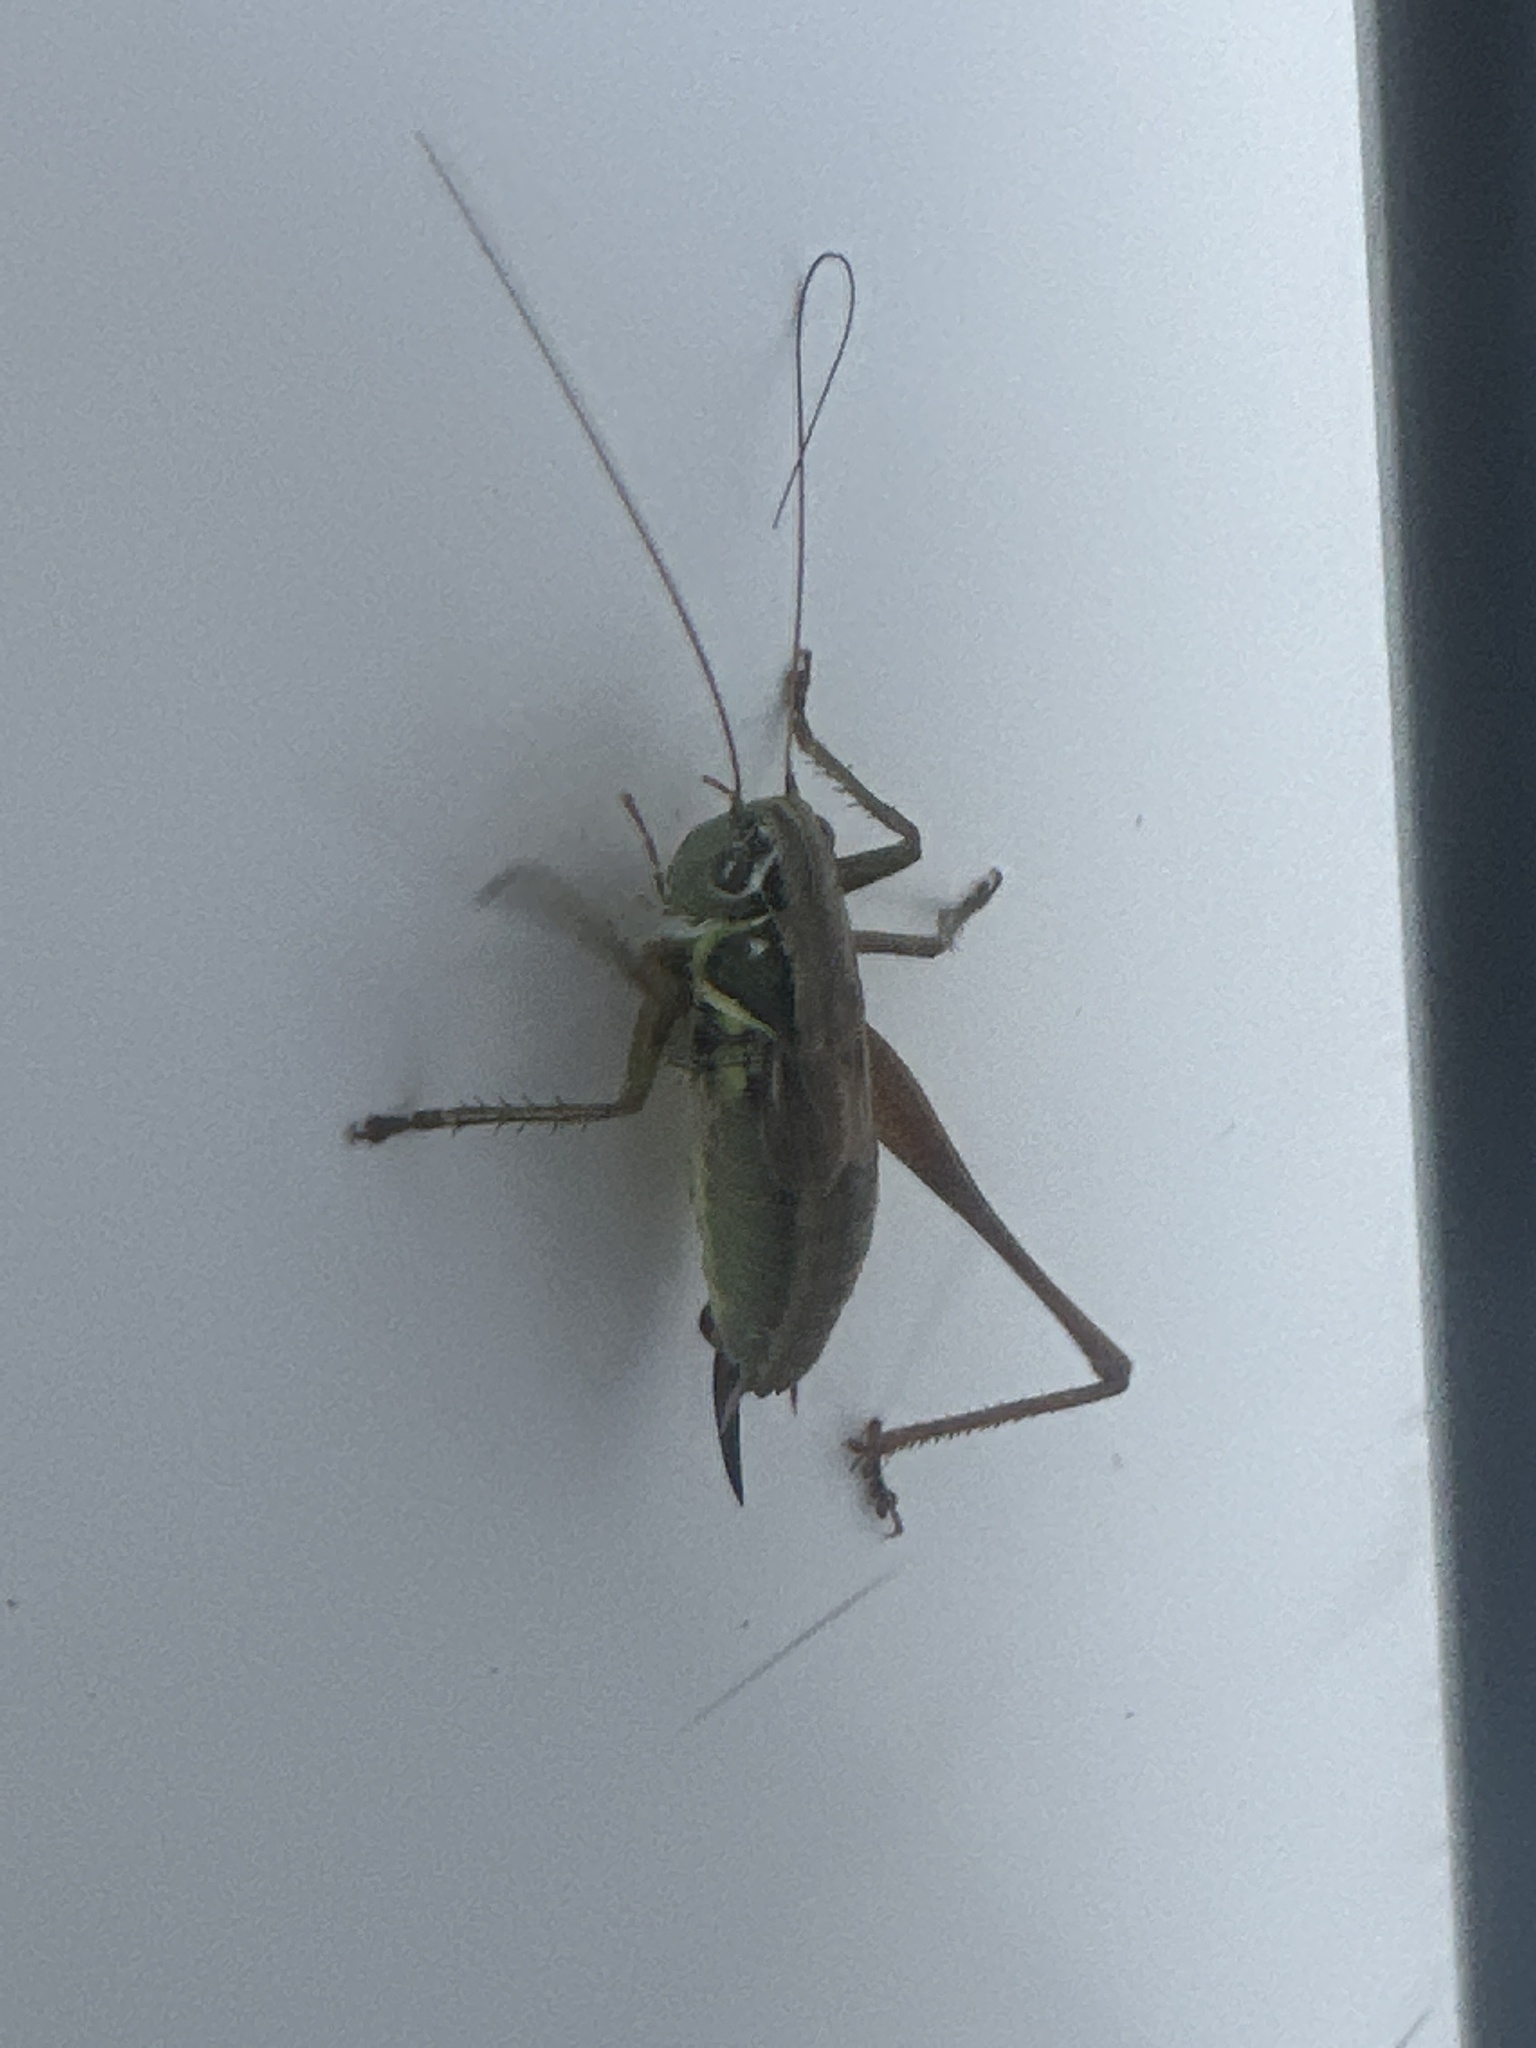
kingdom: Animalia
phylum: Arthropoda
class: Insecta
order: Orthoptera
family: Tettigoniidae
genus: Roeseliana
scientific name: Roeseliana roeselii
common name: Roesel's bush cricket
